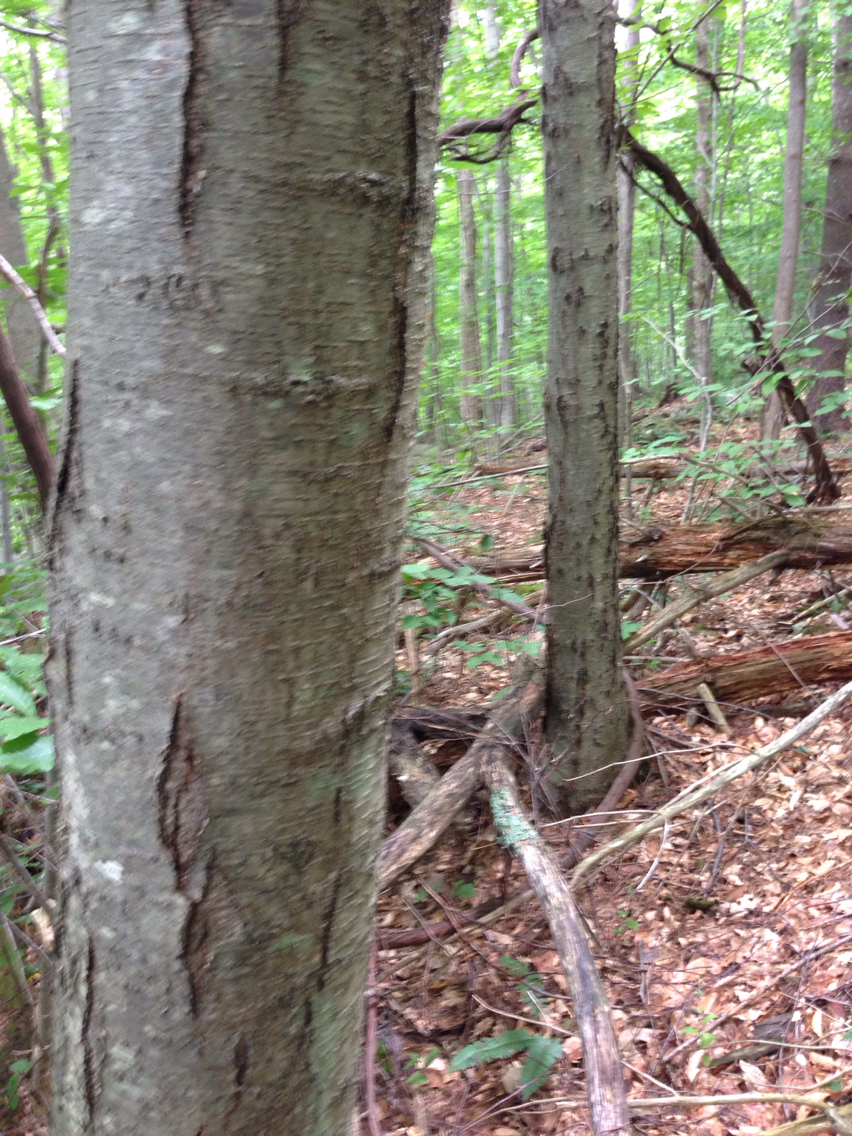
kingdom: Plantae
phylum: Tracheophyta
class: Magnoliopsida
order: Fagales
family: Betulaceae
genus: Betula
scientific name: Betula lenta
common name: Black birch
